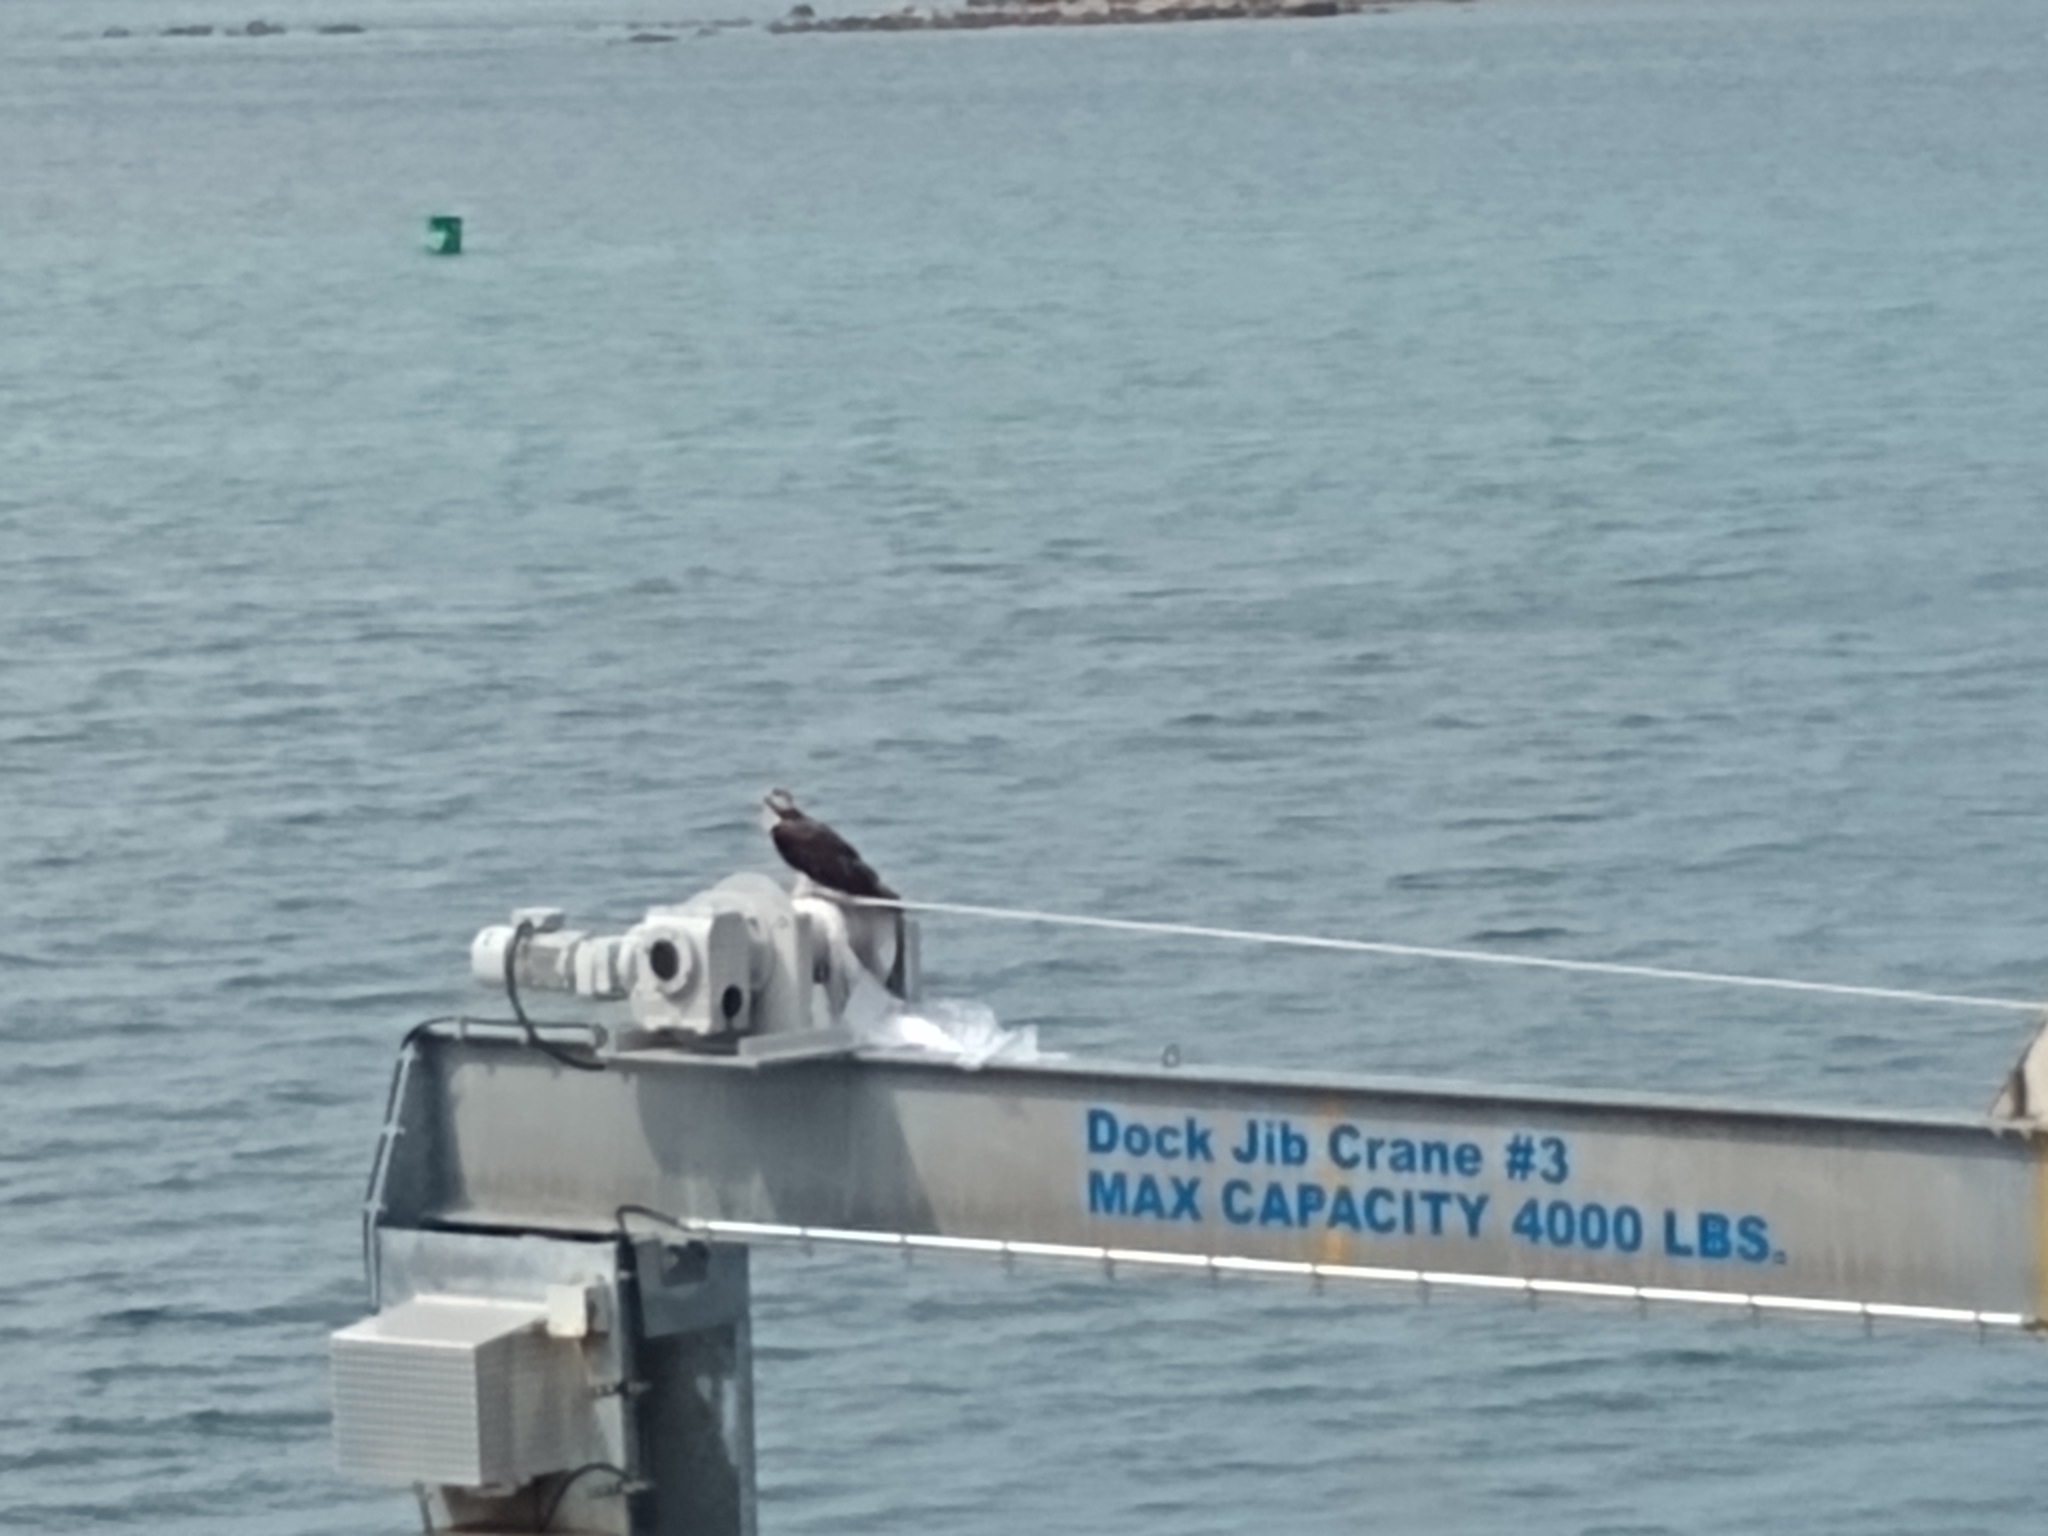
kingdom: Animalia
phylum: Chordata
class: Aves
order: Accipitriformes
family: Pandionidae
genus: Pandion
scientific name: Pandion haliaetus
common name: Osprey
